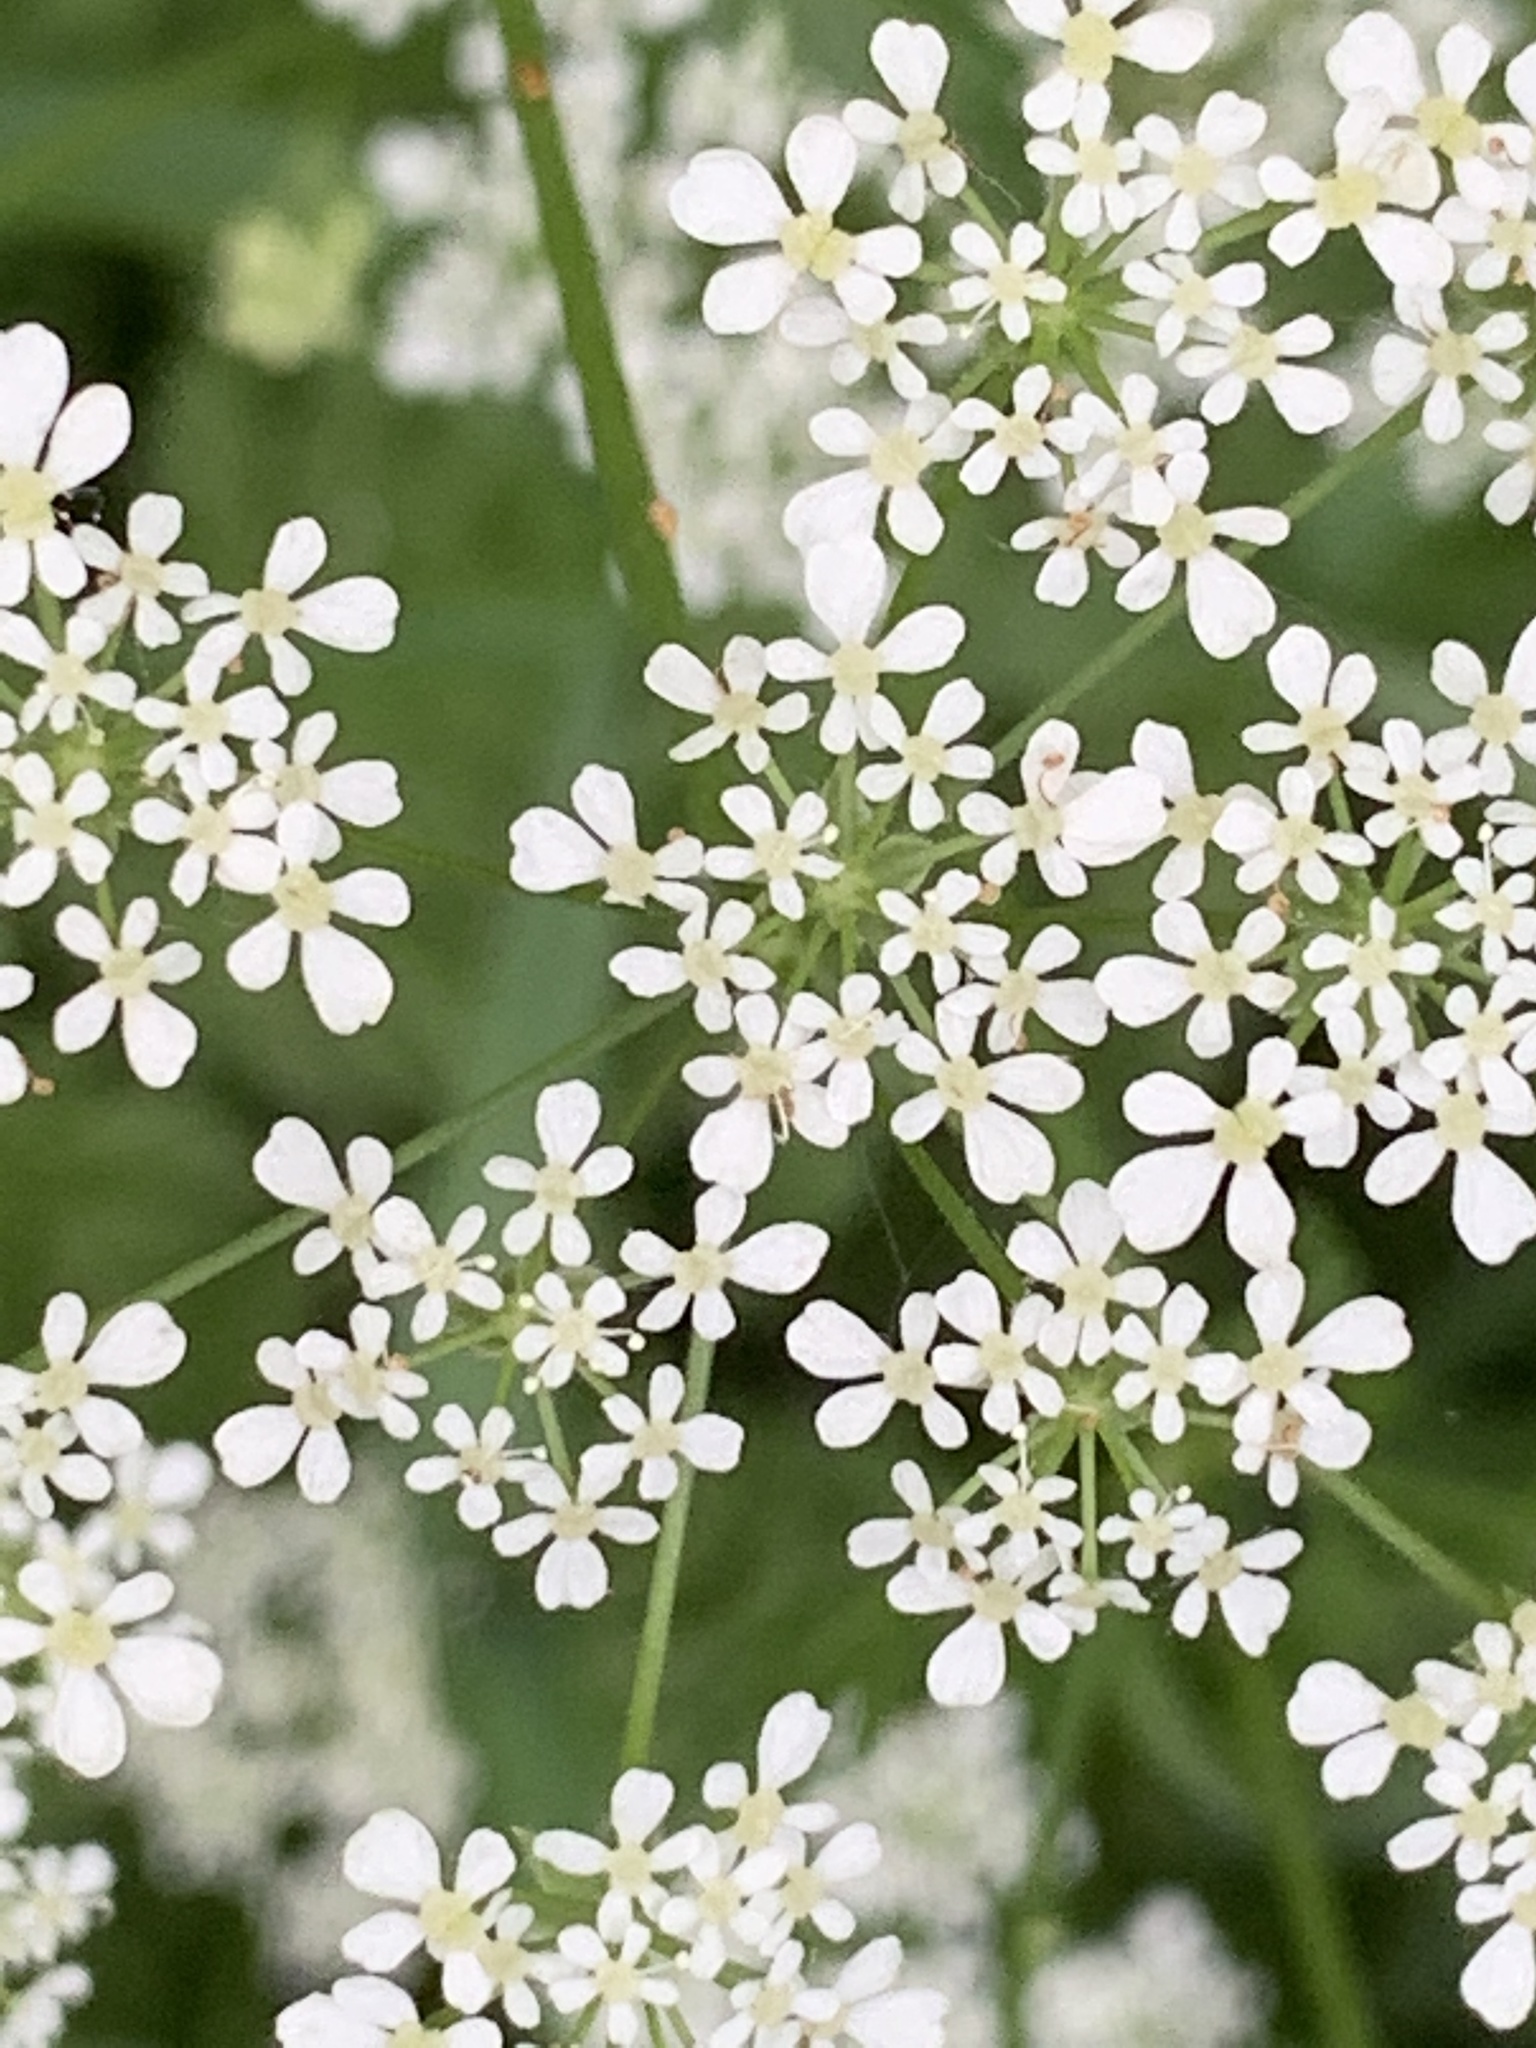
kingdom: Plantae
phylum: Tracheophyta
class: Magnoliopsida
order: Apiales
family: Apiaceae
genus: Anthriscus
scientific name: Anthriscus sylvestris
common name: Cow parsley
